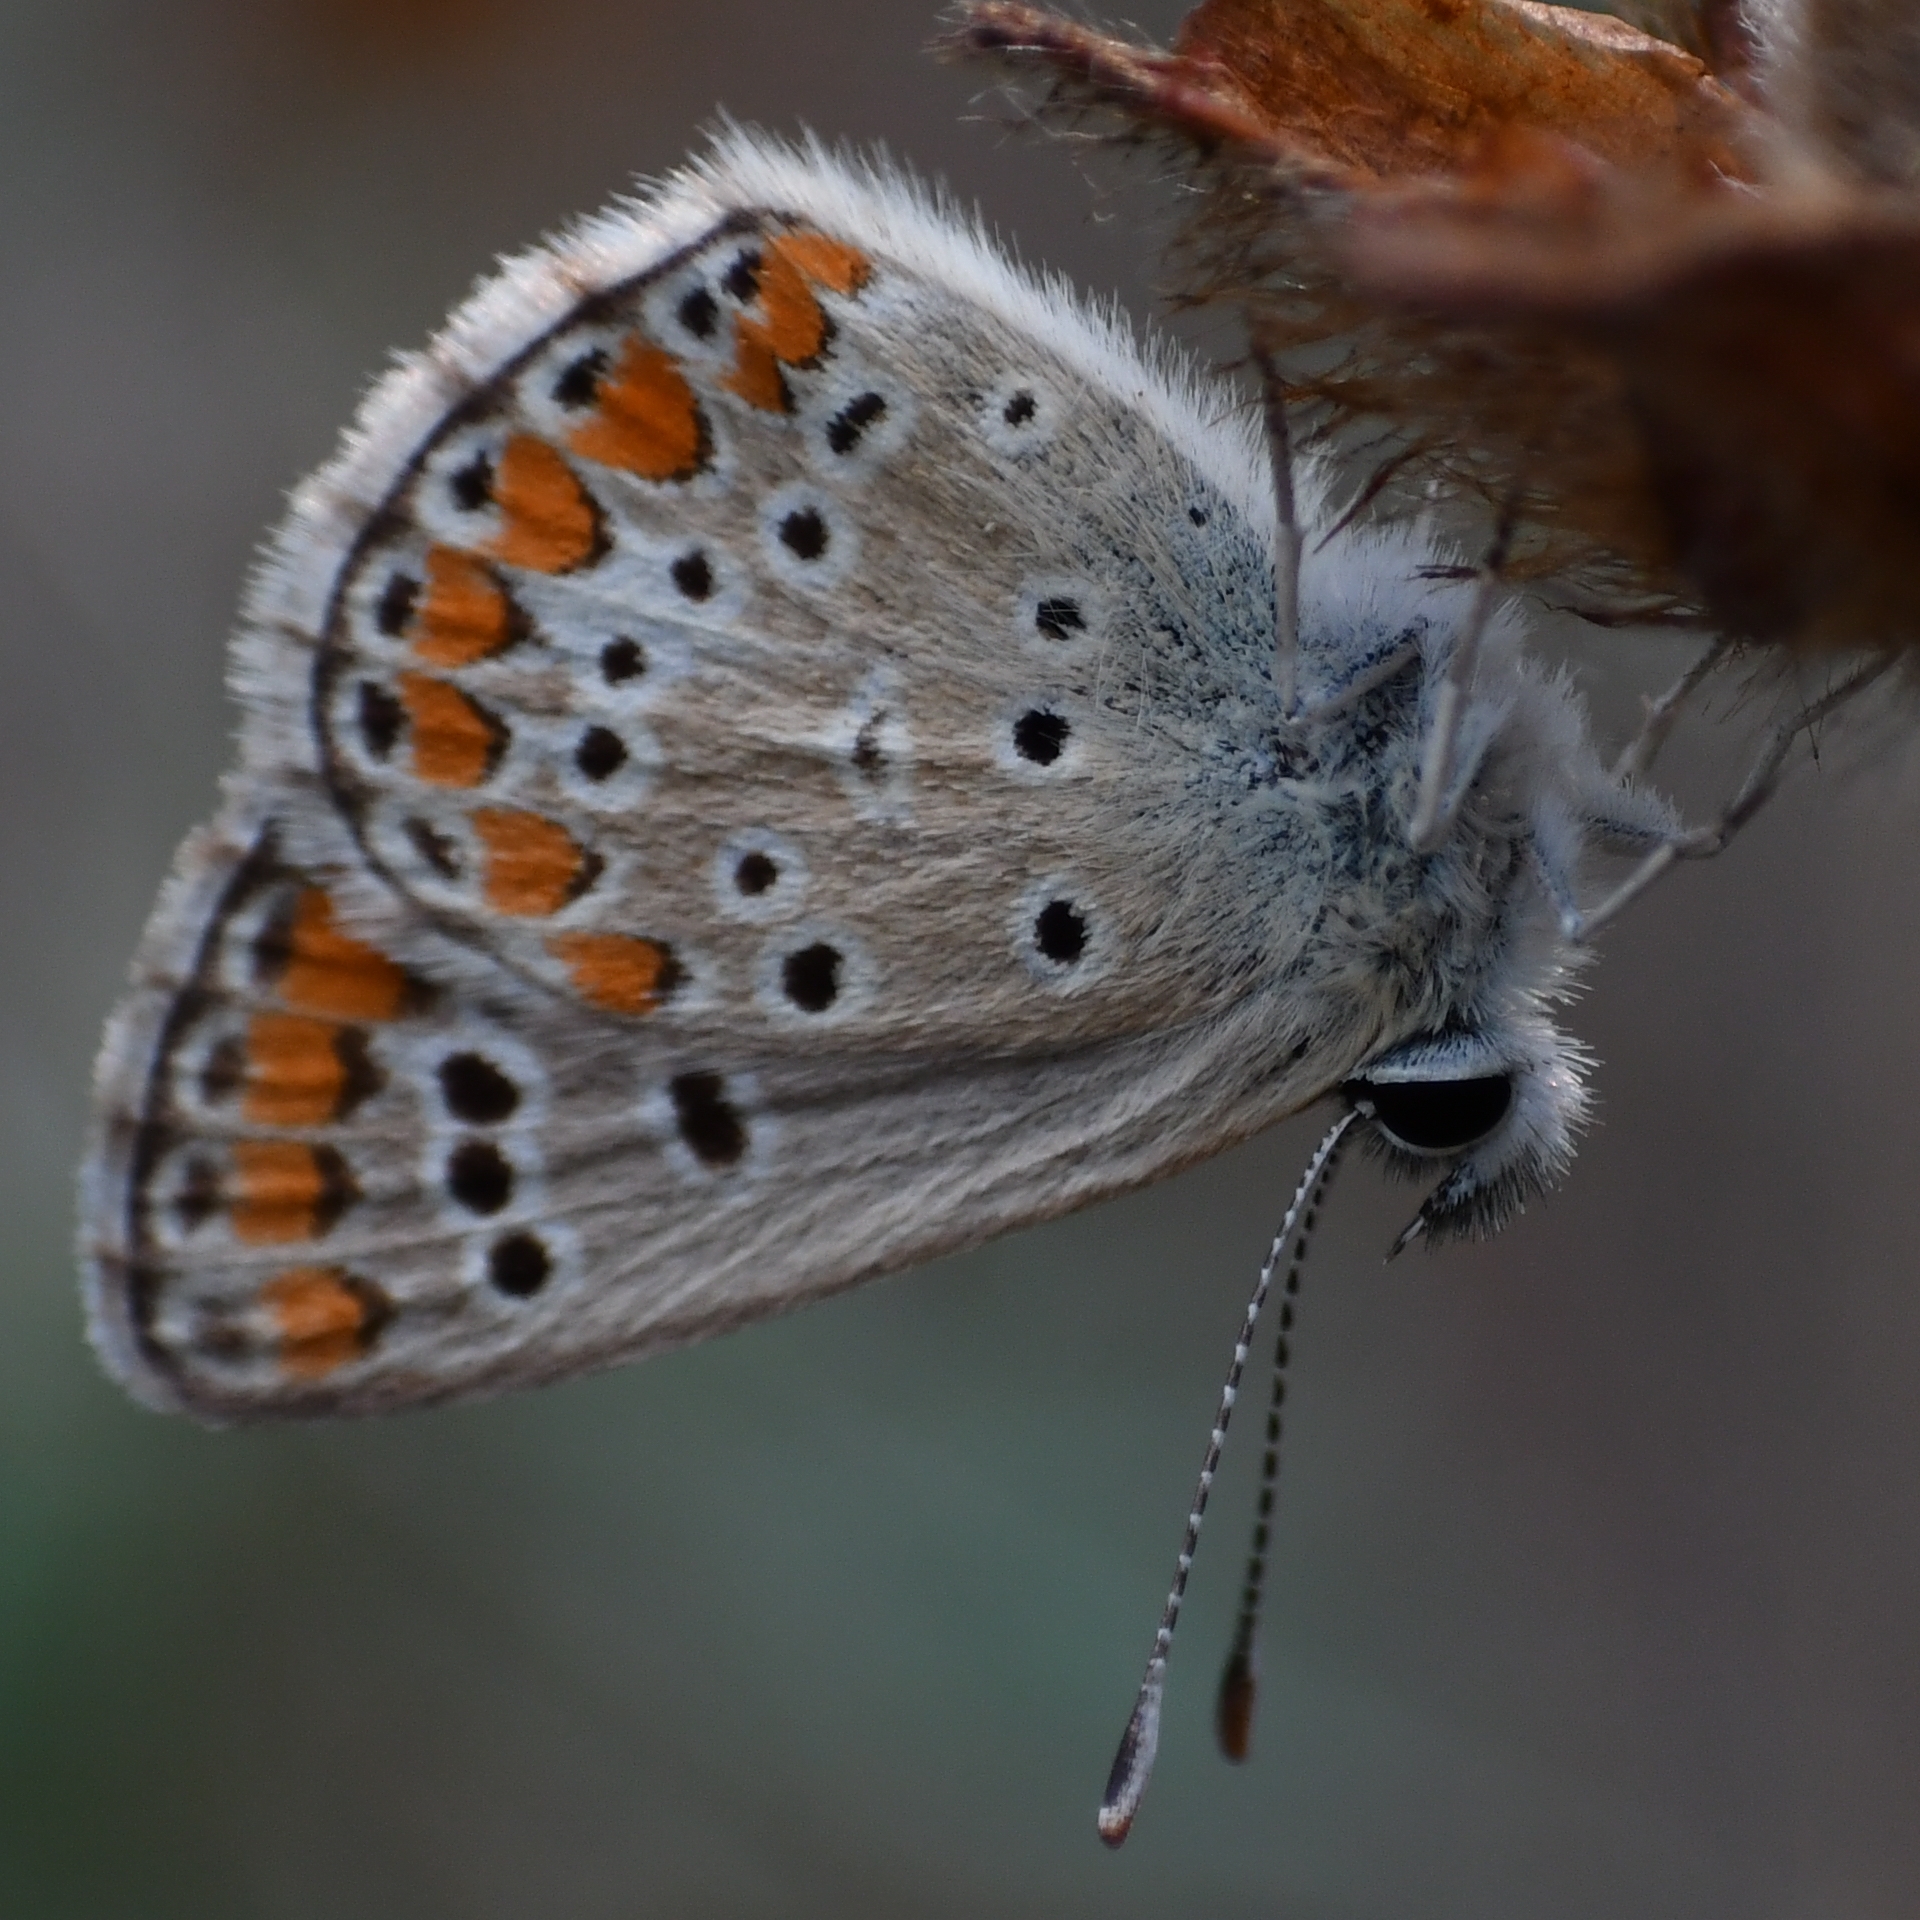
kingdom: Animalia
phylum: Arthropoda
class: Insecta
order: Lepidoptera
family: Lycaenidae
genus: Aricia
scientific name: Aricia agestis
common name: Brown argus
